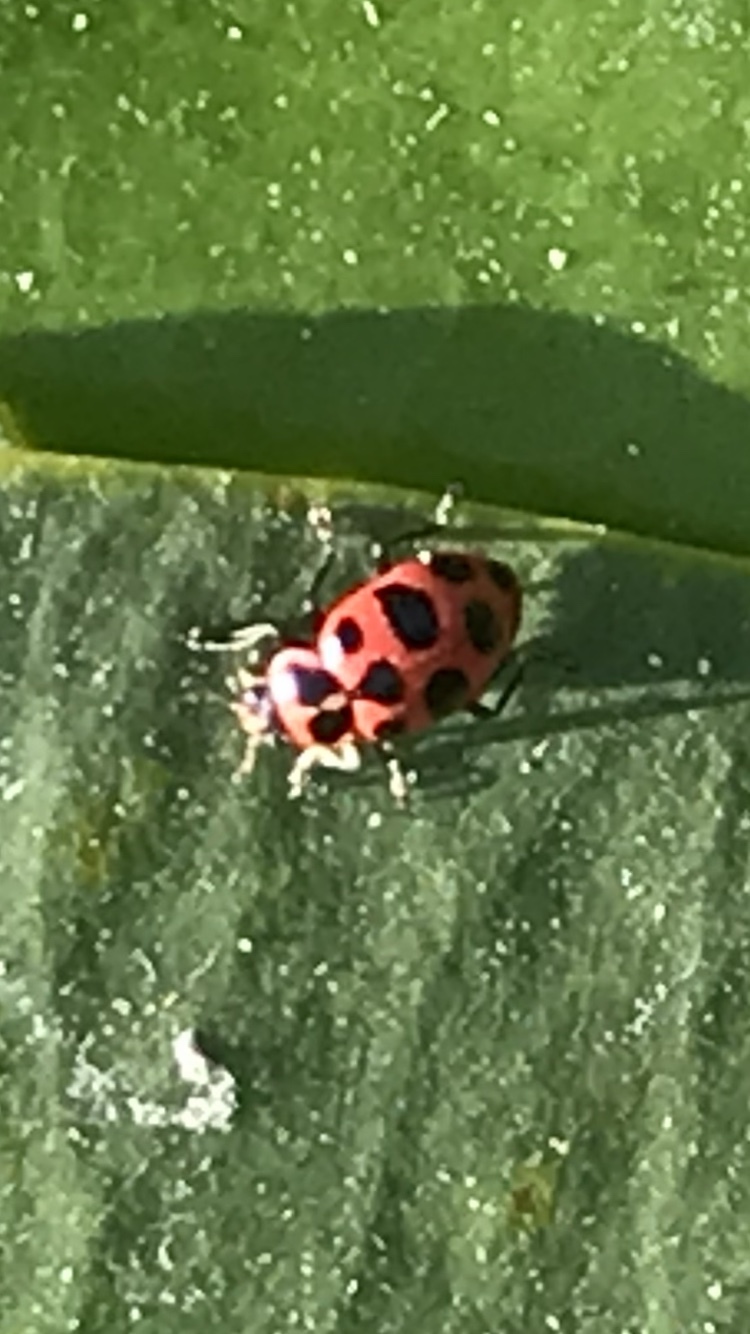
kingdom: Animalia
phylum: Arthropoda
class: Insecta
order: Coleoptera
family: Coccinellidae
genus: Coleomegilla
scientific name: Coleomegilla maculata
